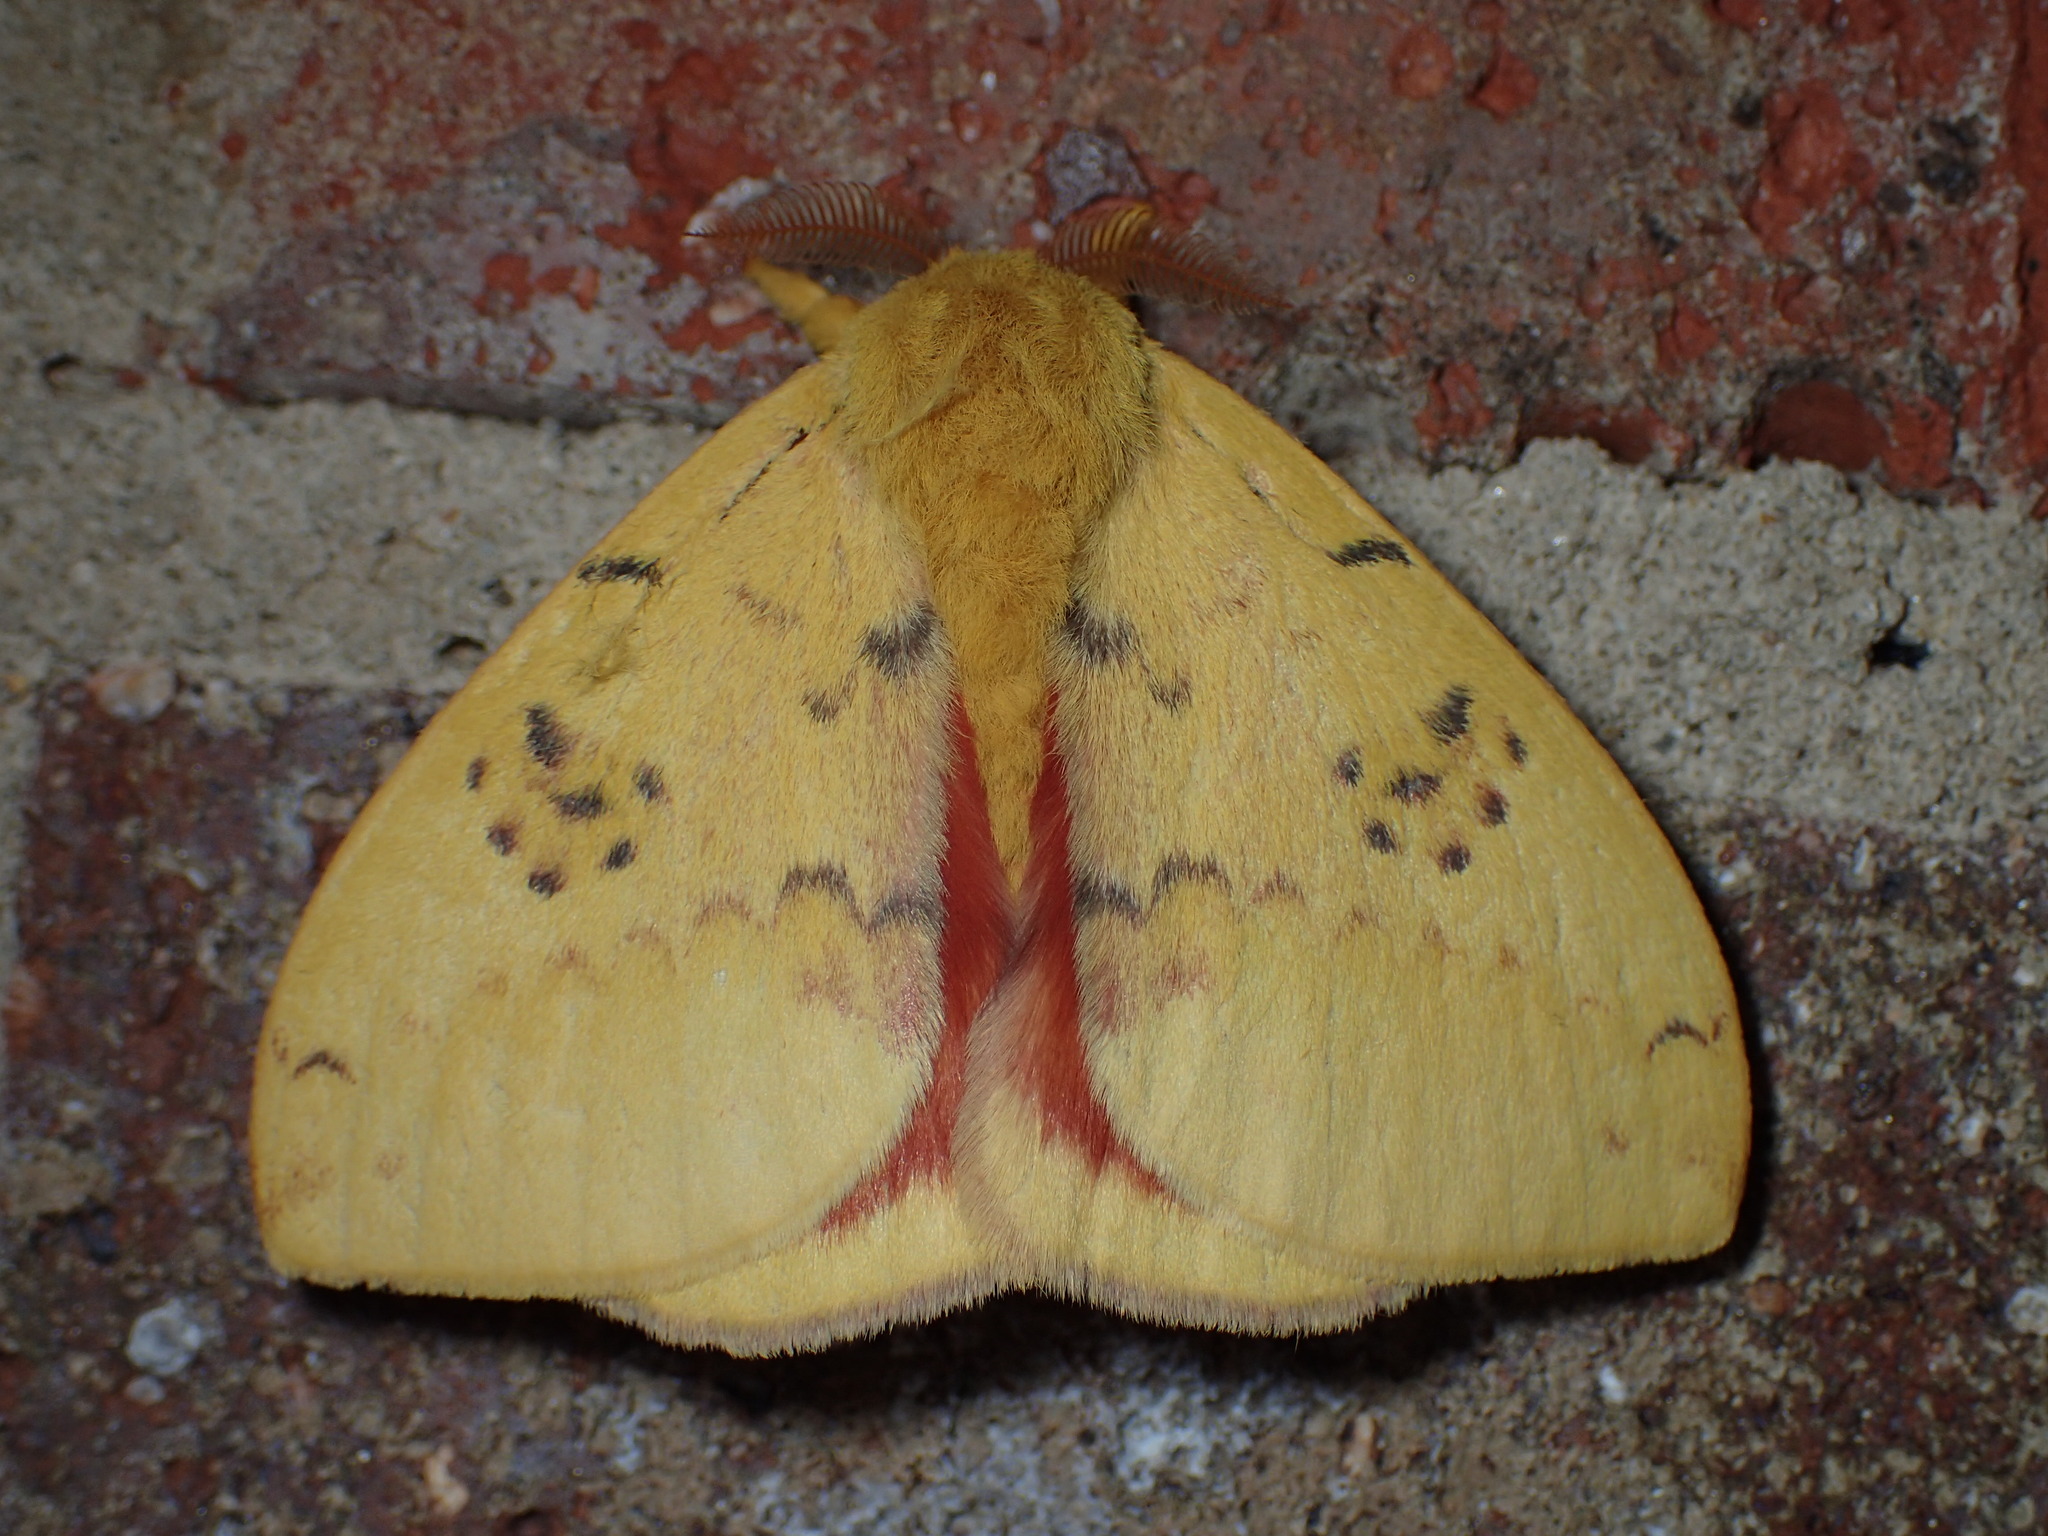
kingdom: Animalia
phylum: Arthropoda
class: Insecta
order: Lepidoptera
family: Saturniidae
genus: Automeris
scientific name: Automeris io
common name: Io moth
